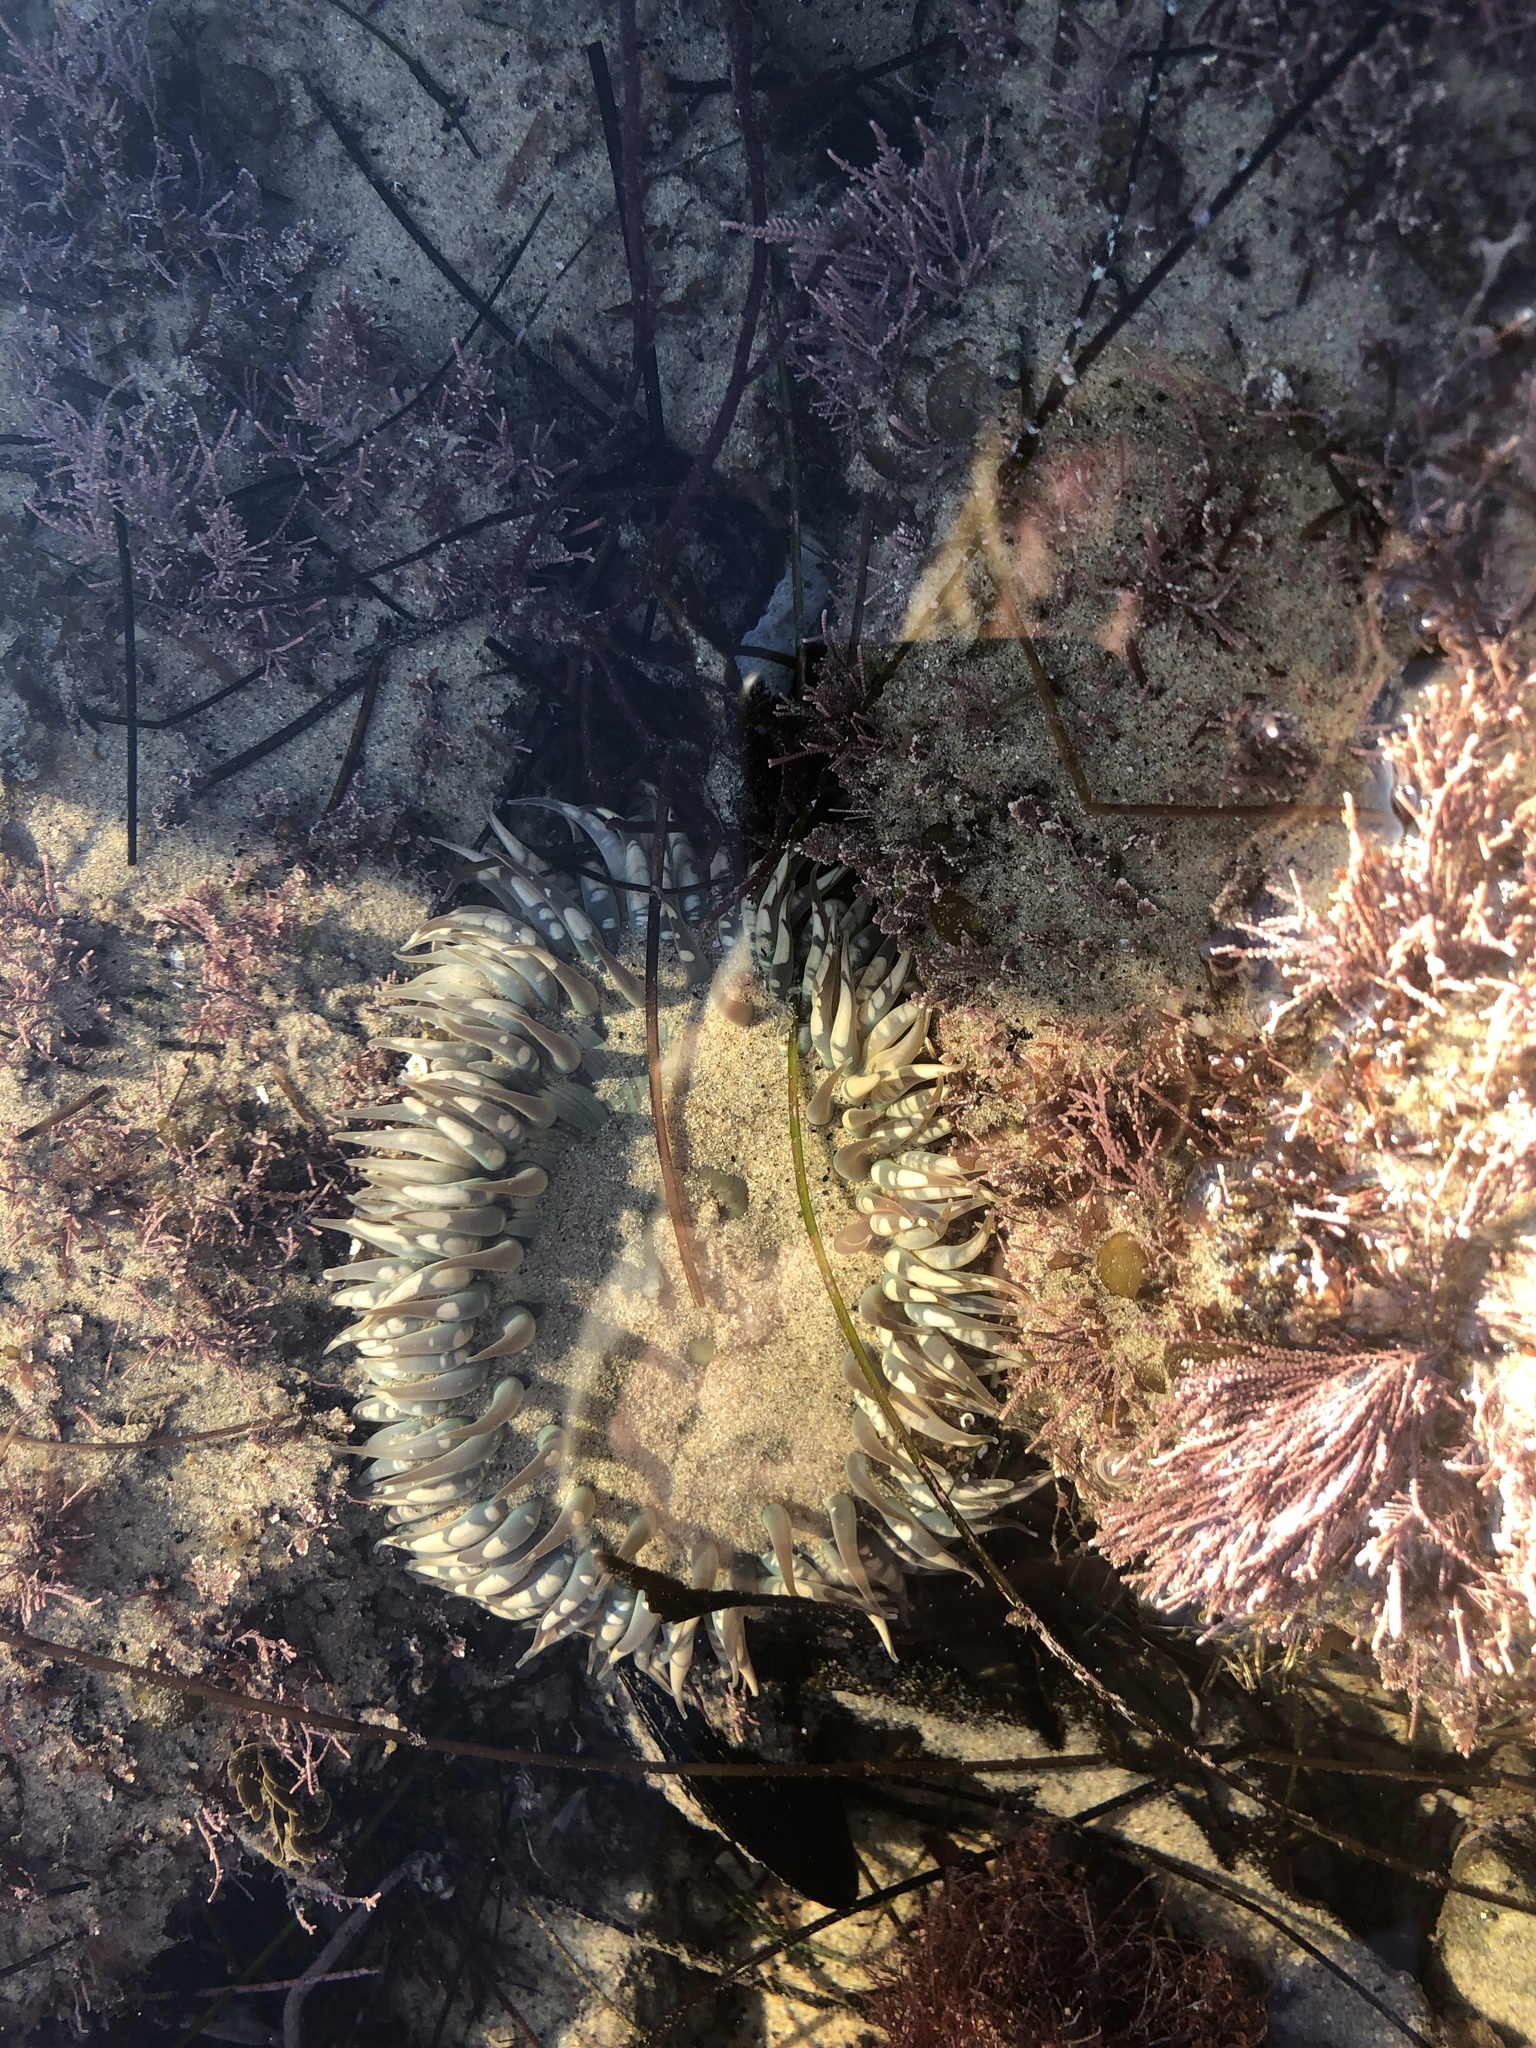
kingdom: Animalia
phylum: Cnidaria
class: Anthozoa
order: Actiniaria
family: Actiniidae
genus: Anthopleura
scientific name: Anthopleura sola
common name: Sun anemone
